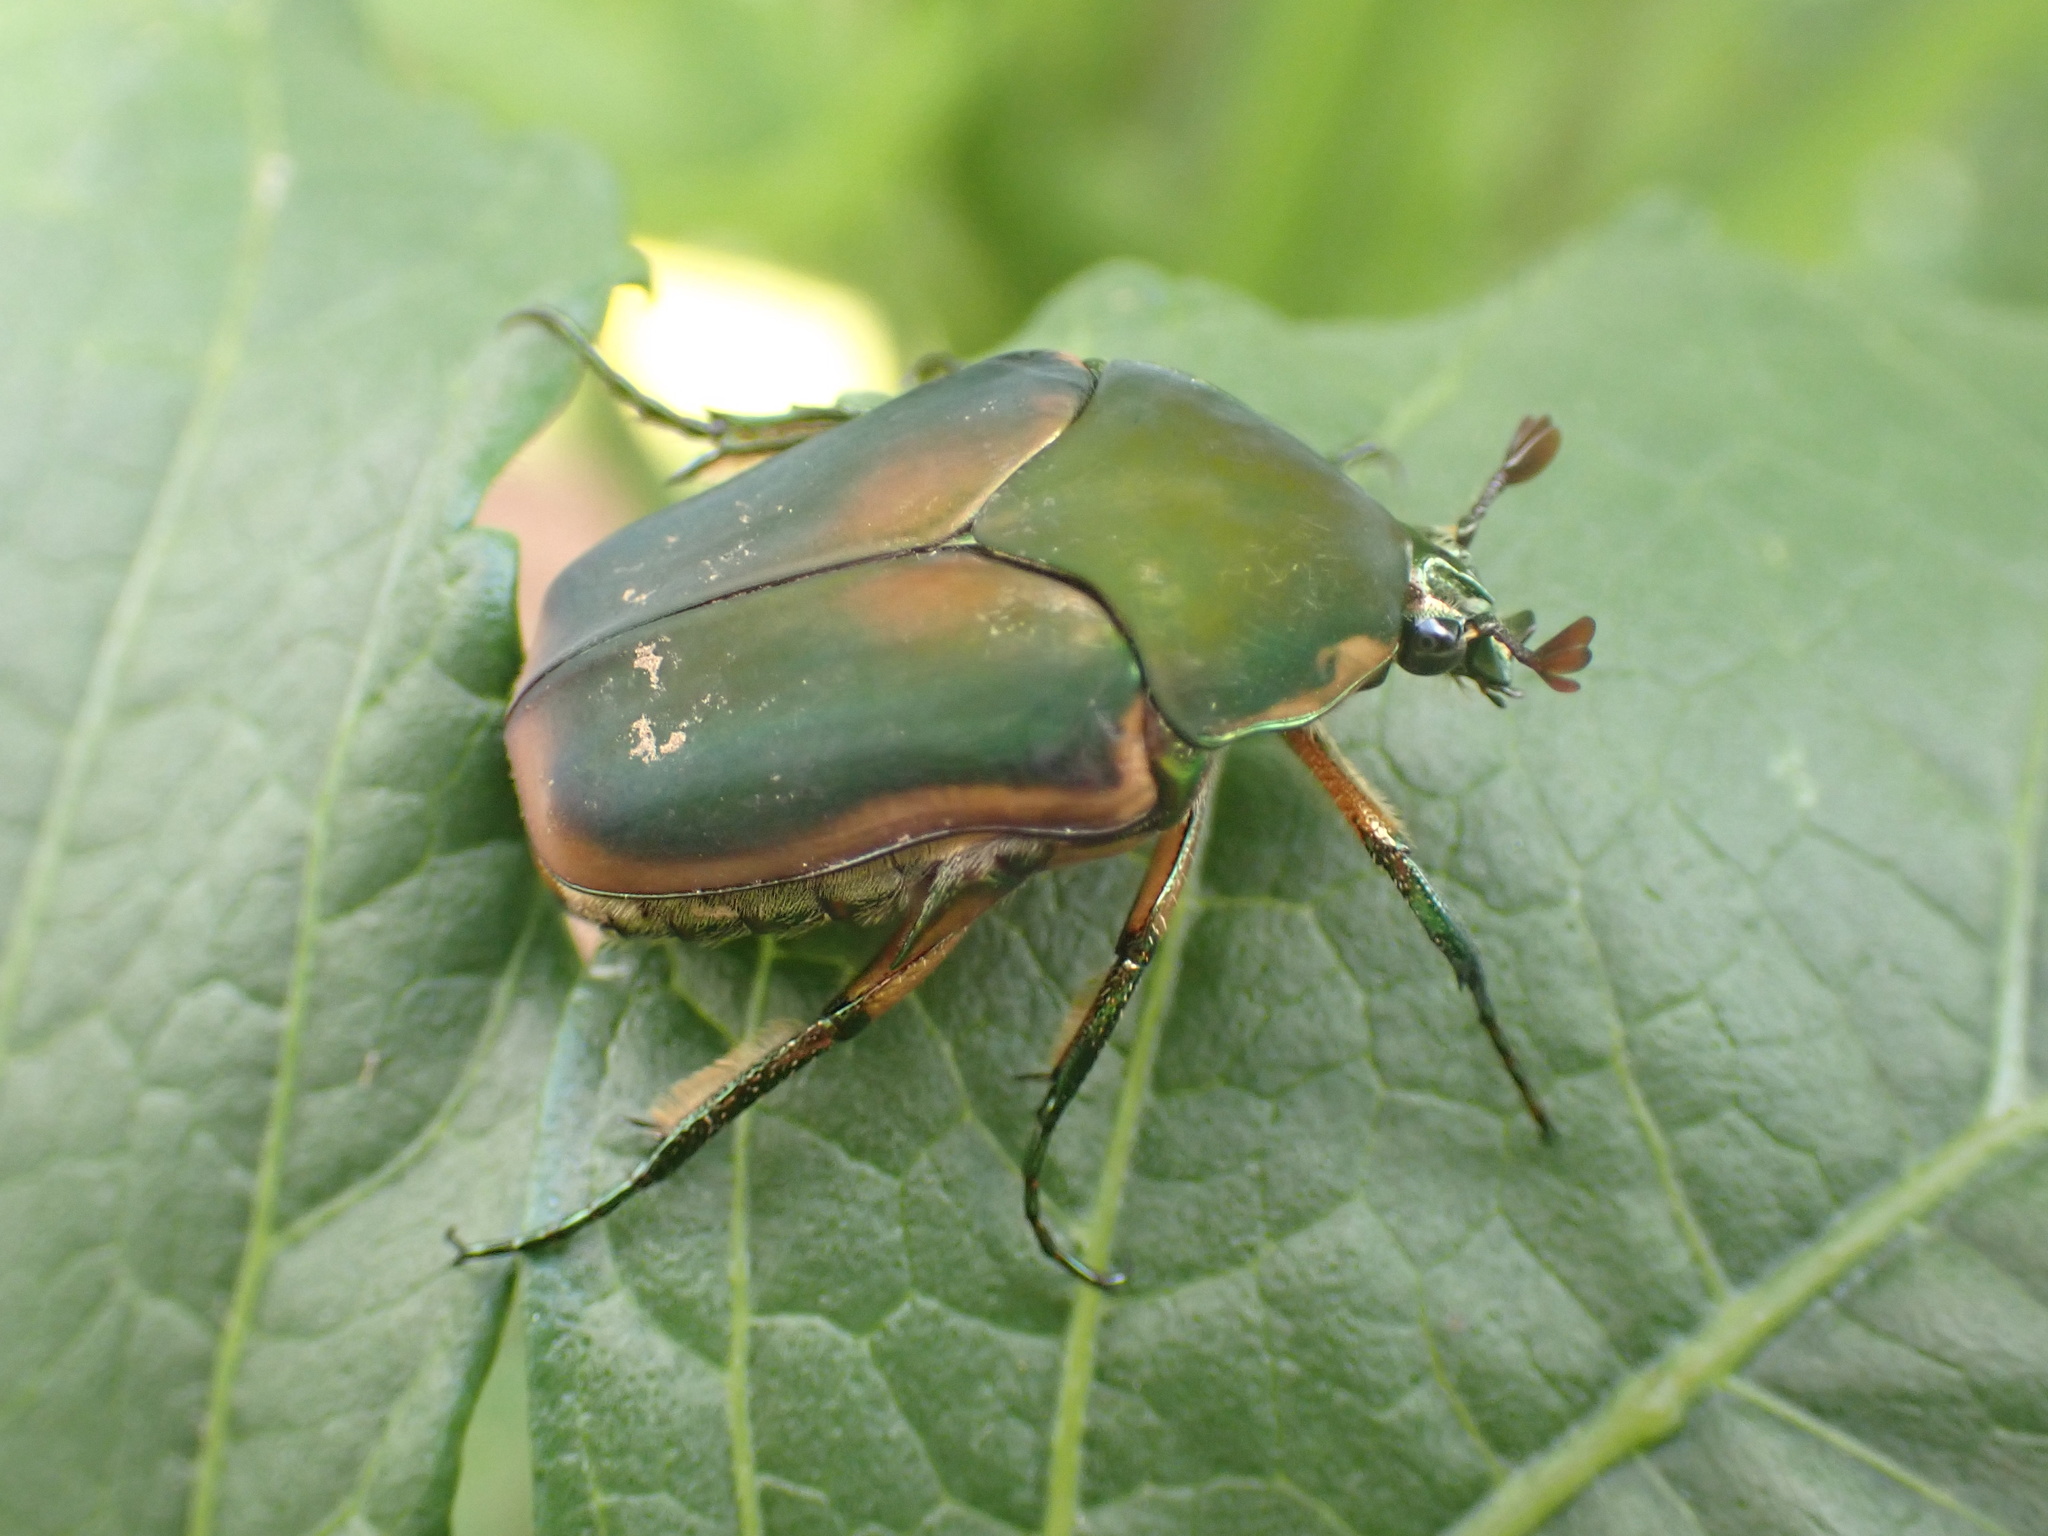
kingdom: Animalia
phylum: Arthropoda
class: Insecta
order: Coleoptera
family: Scarabaeidae
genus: Cotinis
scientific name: Cotinis nitida
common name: Common green june beetle
